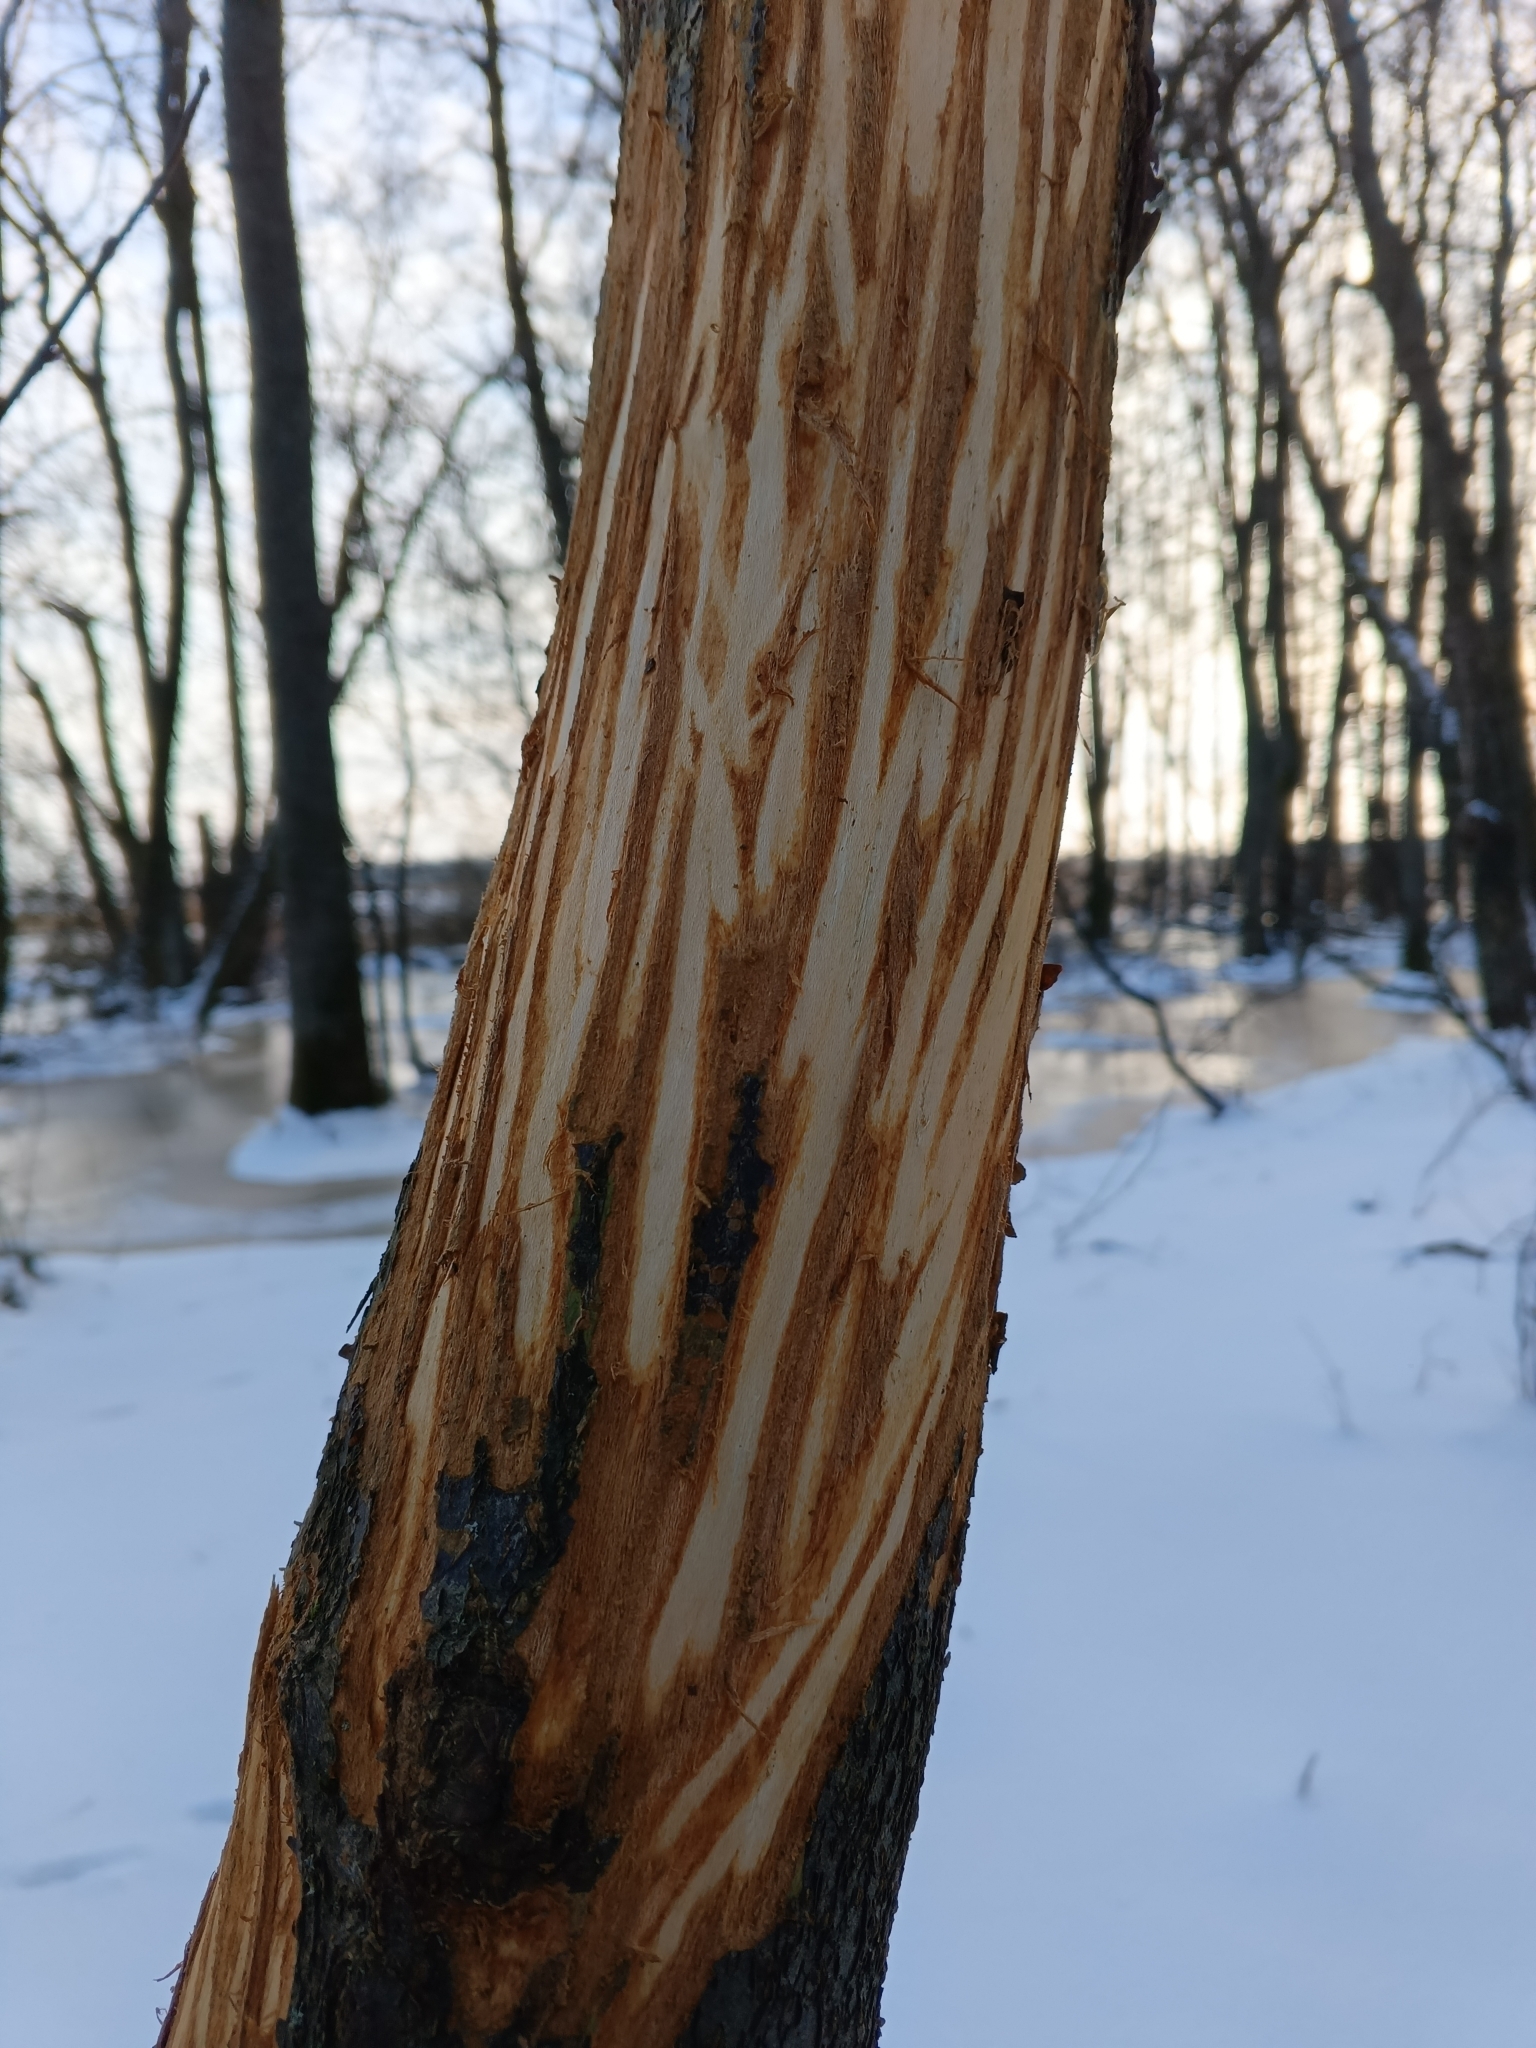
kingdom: Animalia
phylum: Chordata
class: Mammalia
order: Artiodactyla
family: Cervidae
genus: Alces
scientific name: Alces alces
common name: Moose
